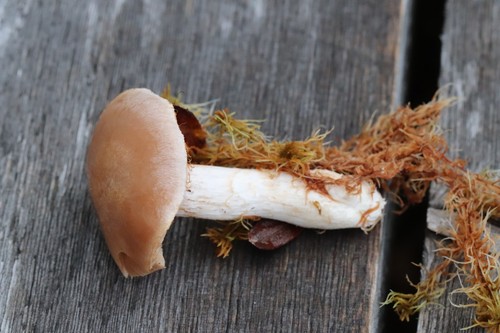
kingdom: Fungi
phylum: Basidiomycota
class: Agaricomycetes
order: Agaricales
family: Cortinariaceae
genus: Cortinarius
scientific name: Cortinarius
